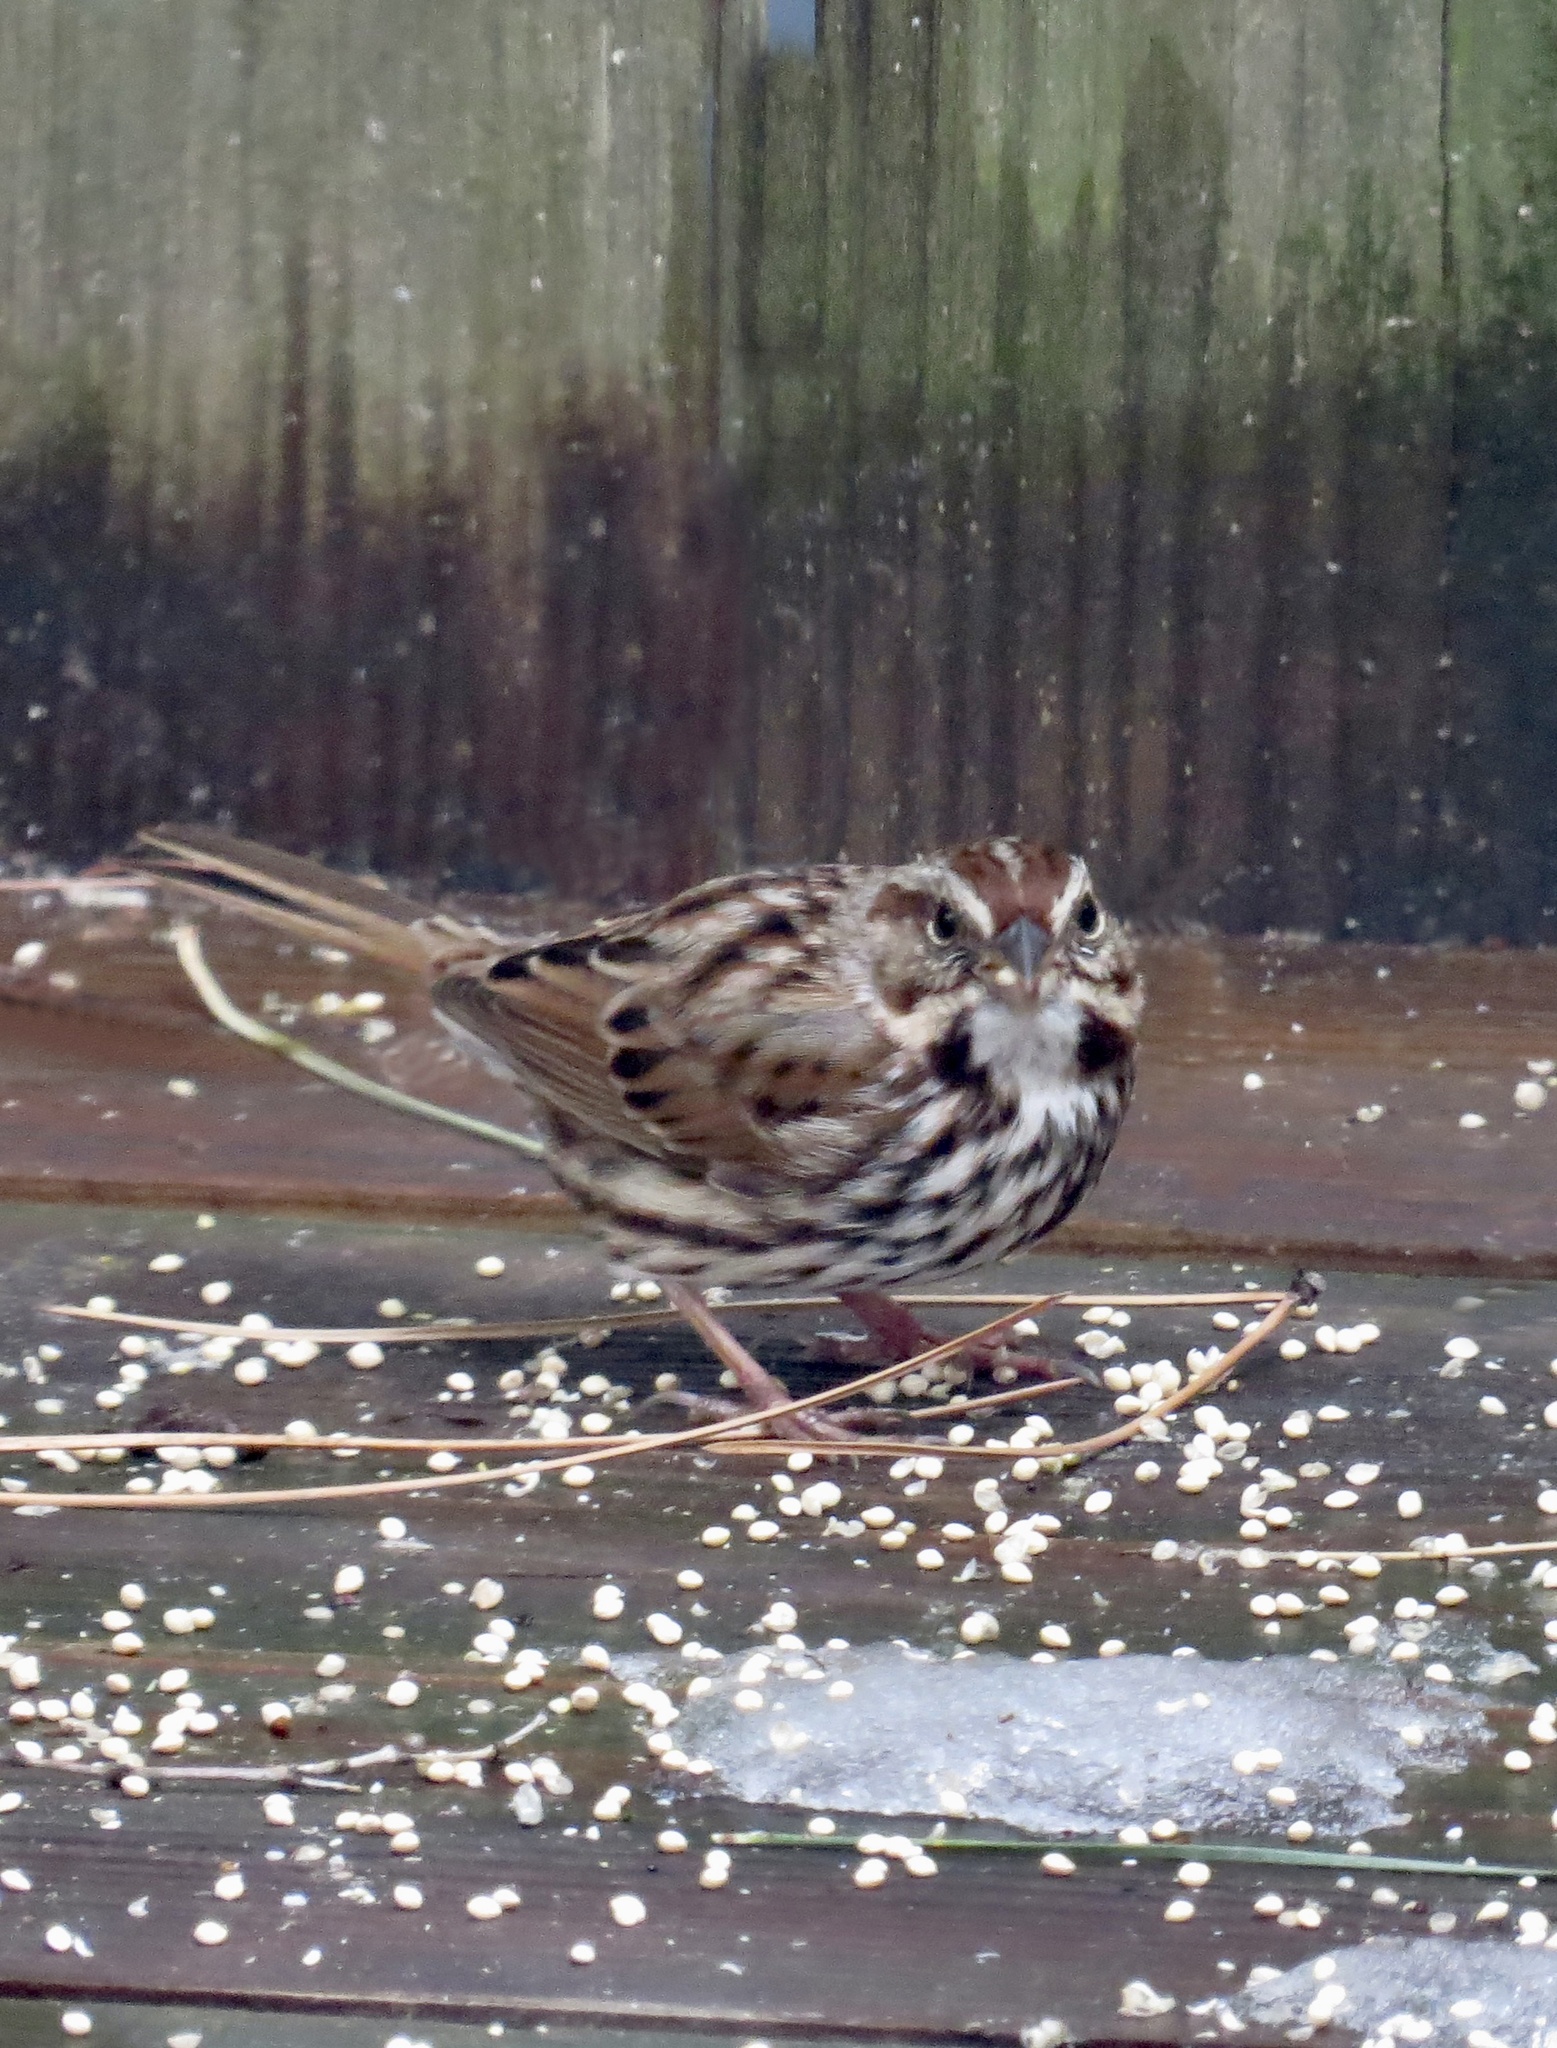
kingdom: Animalia
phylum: Chordata
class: Aves
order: Passeriformes
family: Passerellidae
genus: Melospiza
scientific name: Melospiza melodia
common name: Song sparrow
